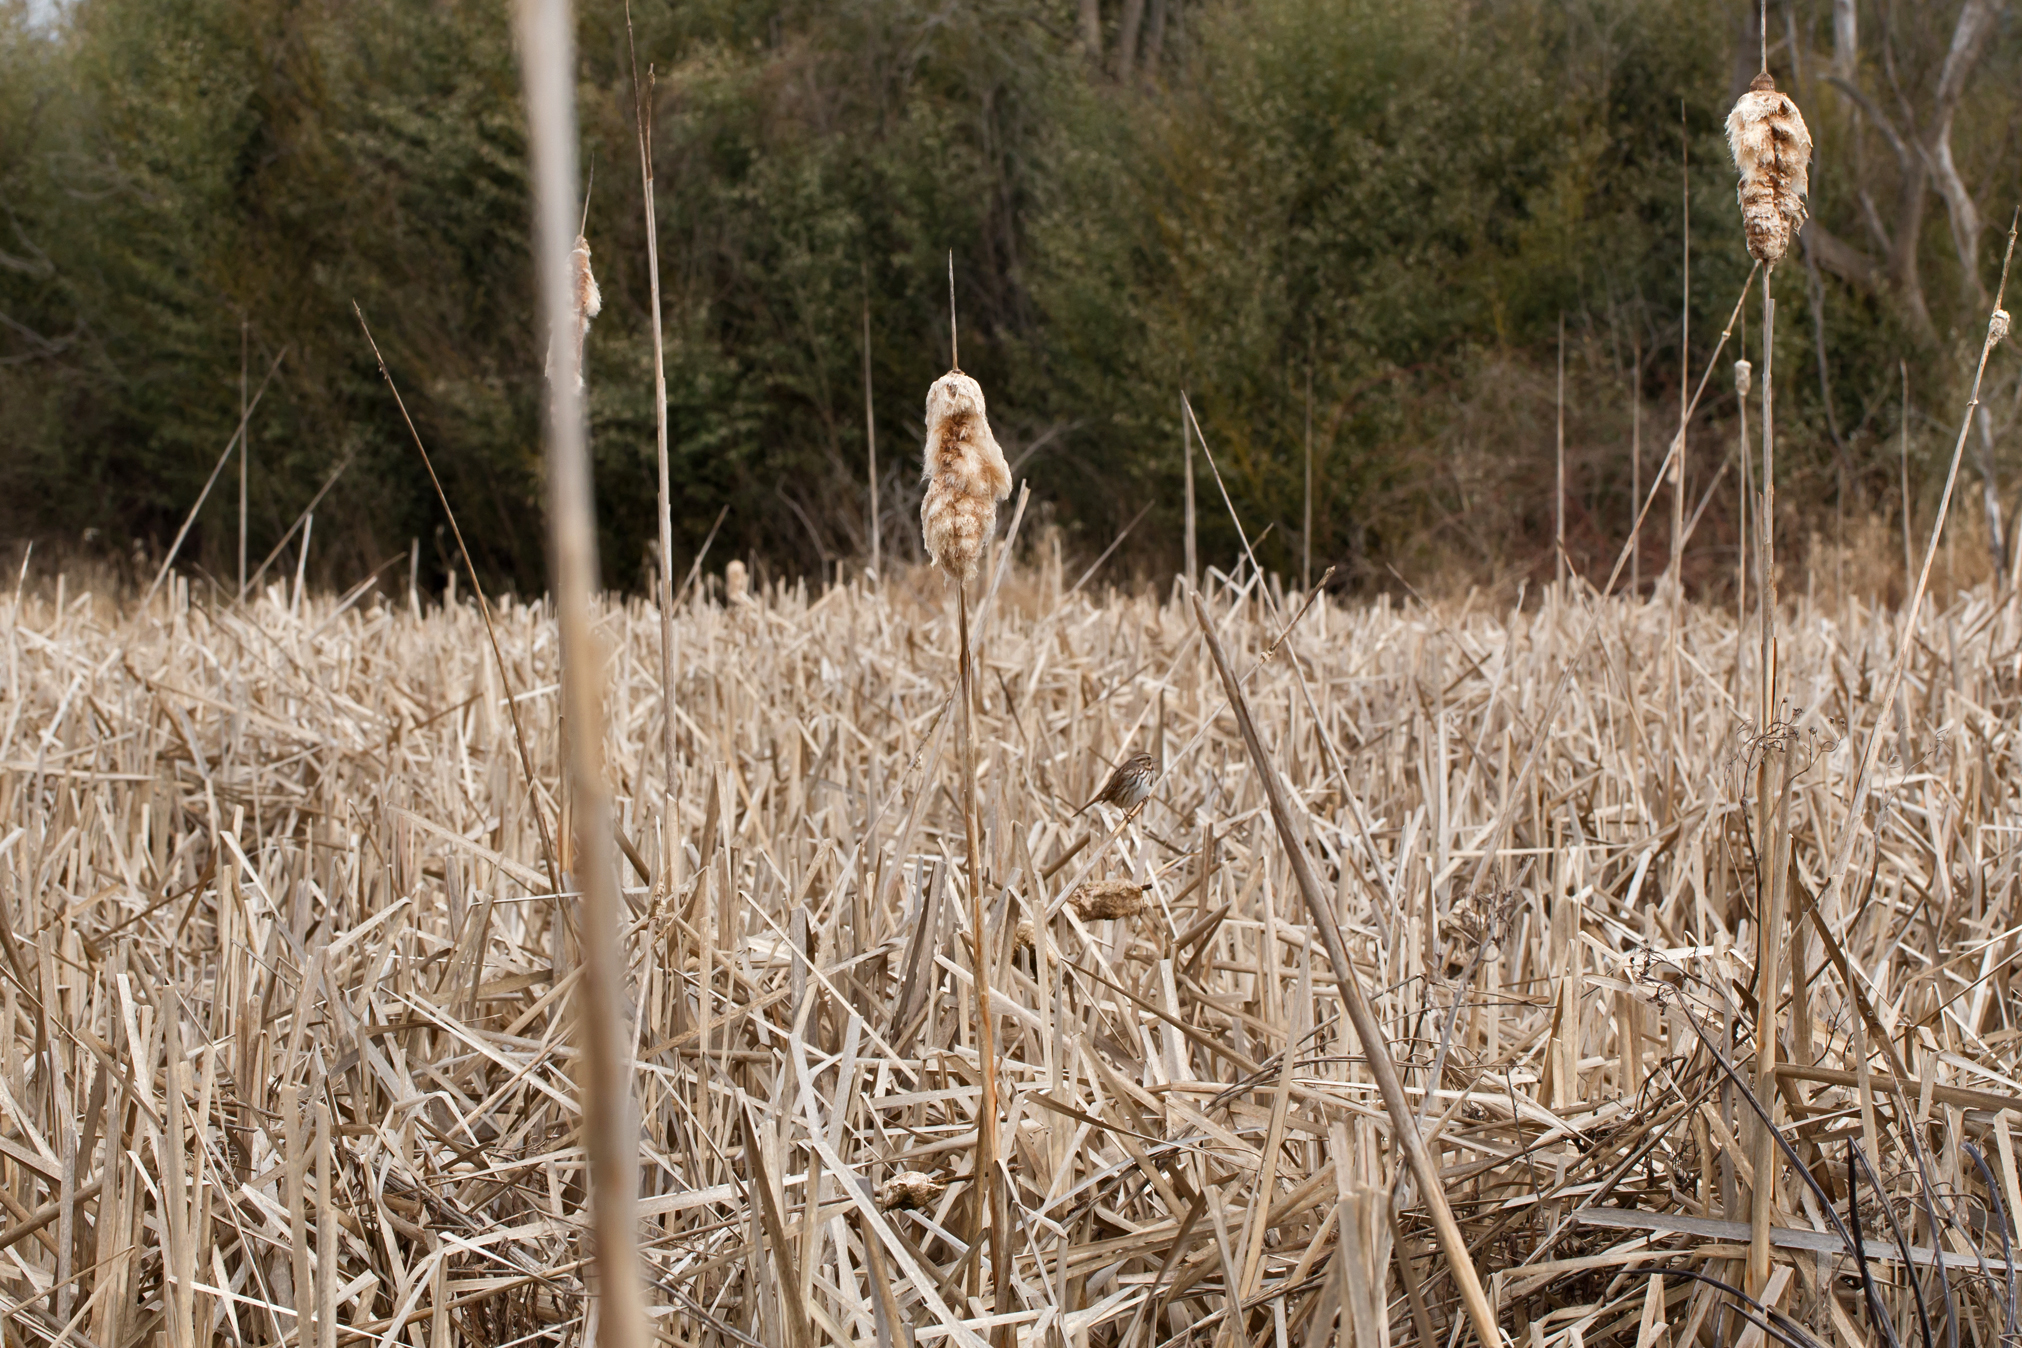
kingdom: Plantae
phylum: Tracheophyta
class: Liliopsida
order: Poales
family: Typhaceae
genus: Typha
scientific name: Typha latifolia
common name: Broadleaf cattail
